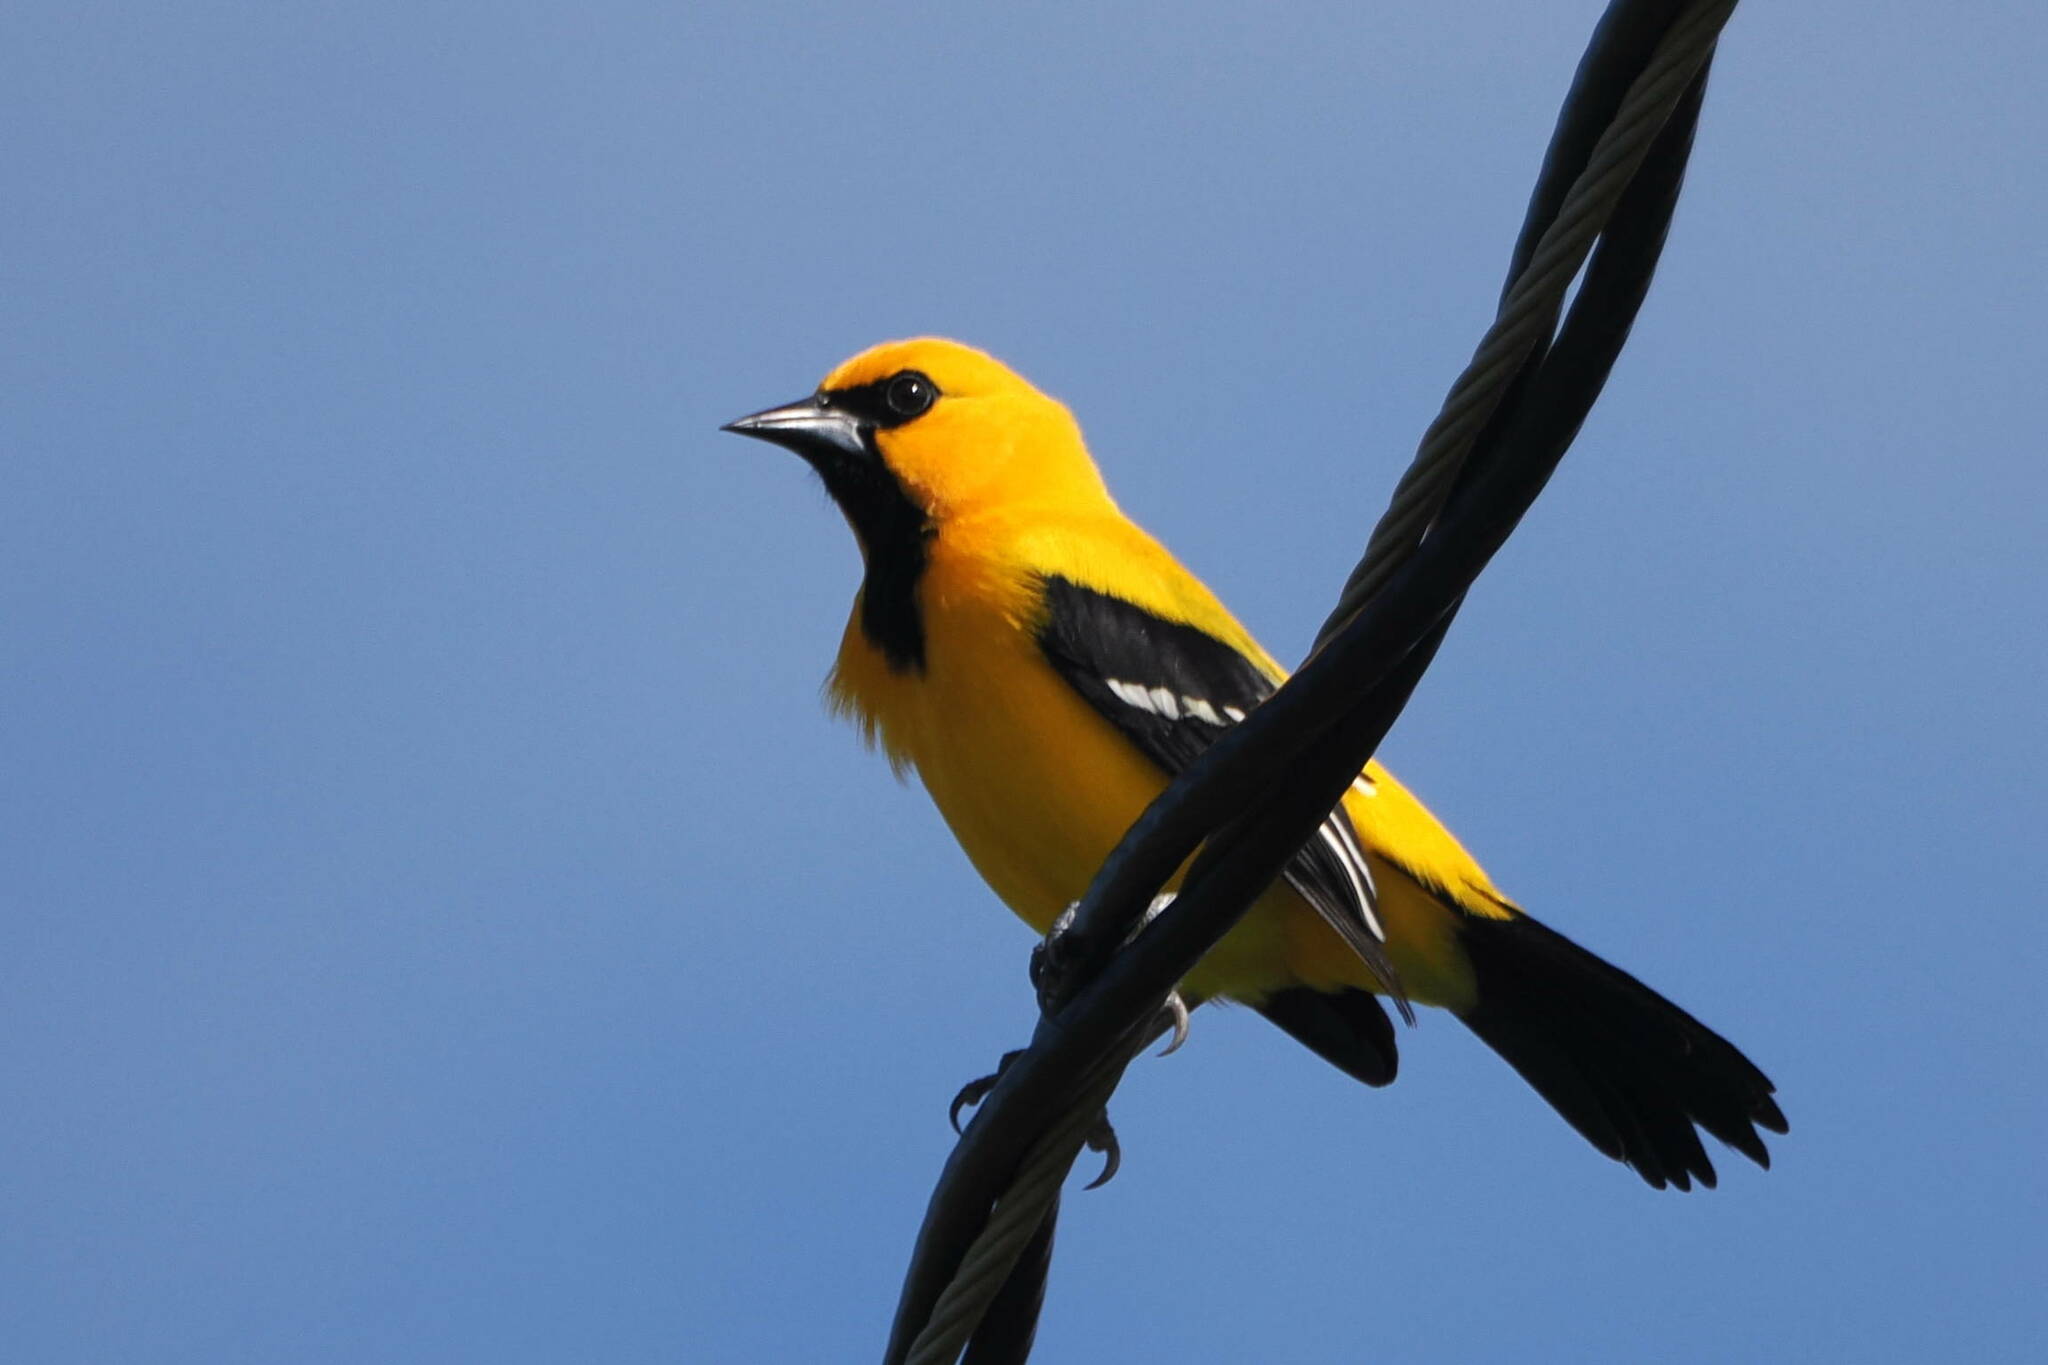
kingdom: Animalia
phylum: Chordata
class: Aves
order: Passeriformes
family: Icteridae
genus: Icterus
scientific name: Icterus nigrogularis
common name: Yellow oriole
